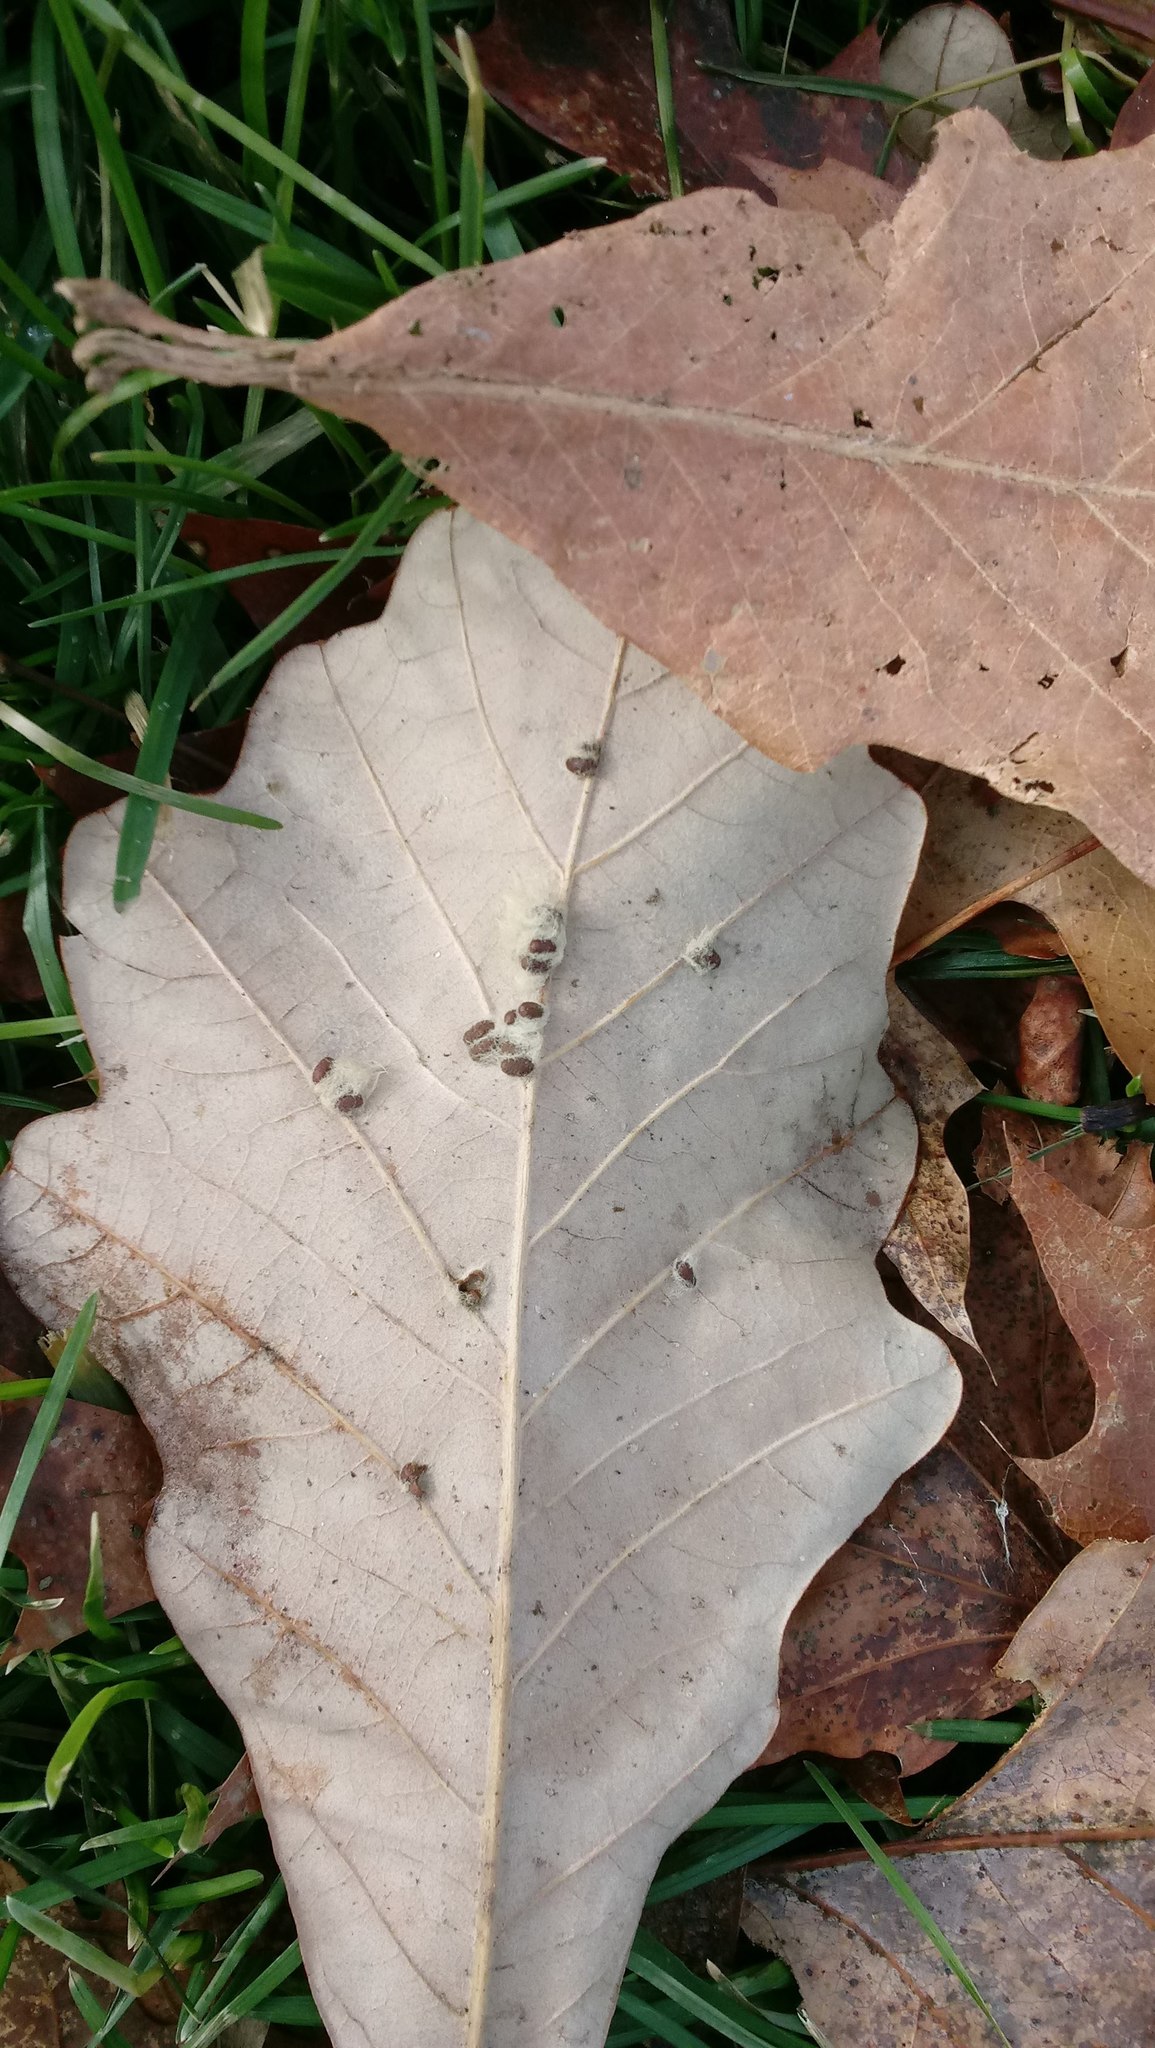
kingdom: Animalia
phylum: Arthropoda
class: Insecta
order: Hymenoptera
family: Cynipidae
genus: Andricus
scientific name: Andricus Druon ignotum
